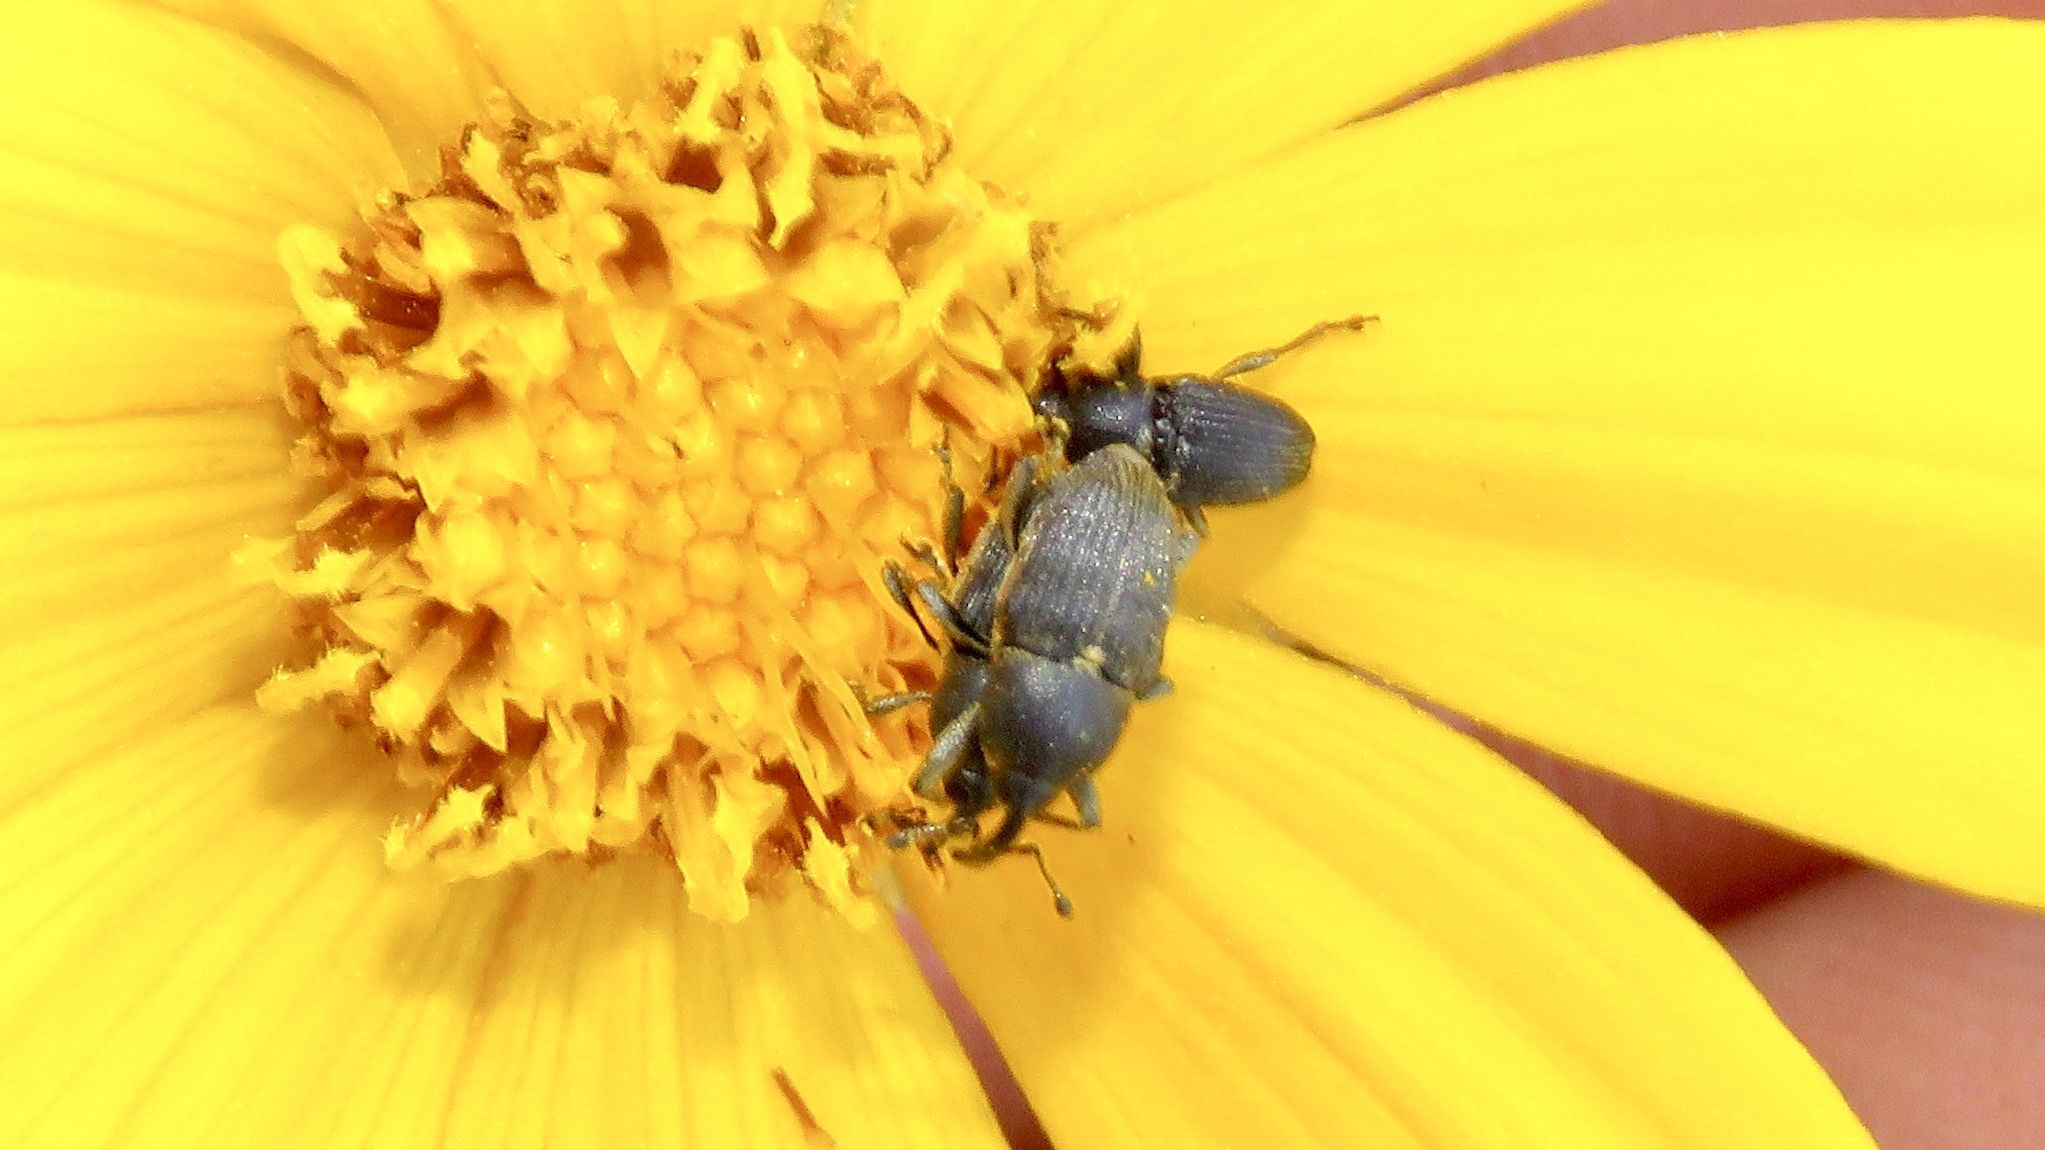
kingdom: Animalia
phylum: Arthropoda
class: Insecta
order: Coleoptera
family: Curculionidae
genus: Odontocorynus
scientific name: Odontocorynus umbellae
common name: Daisy flower weevil
